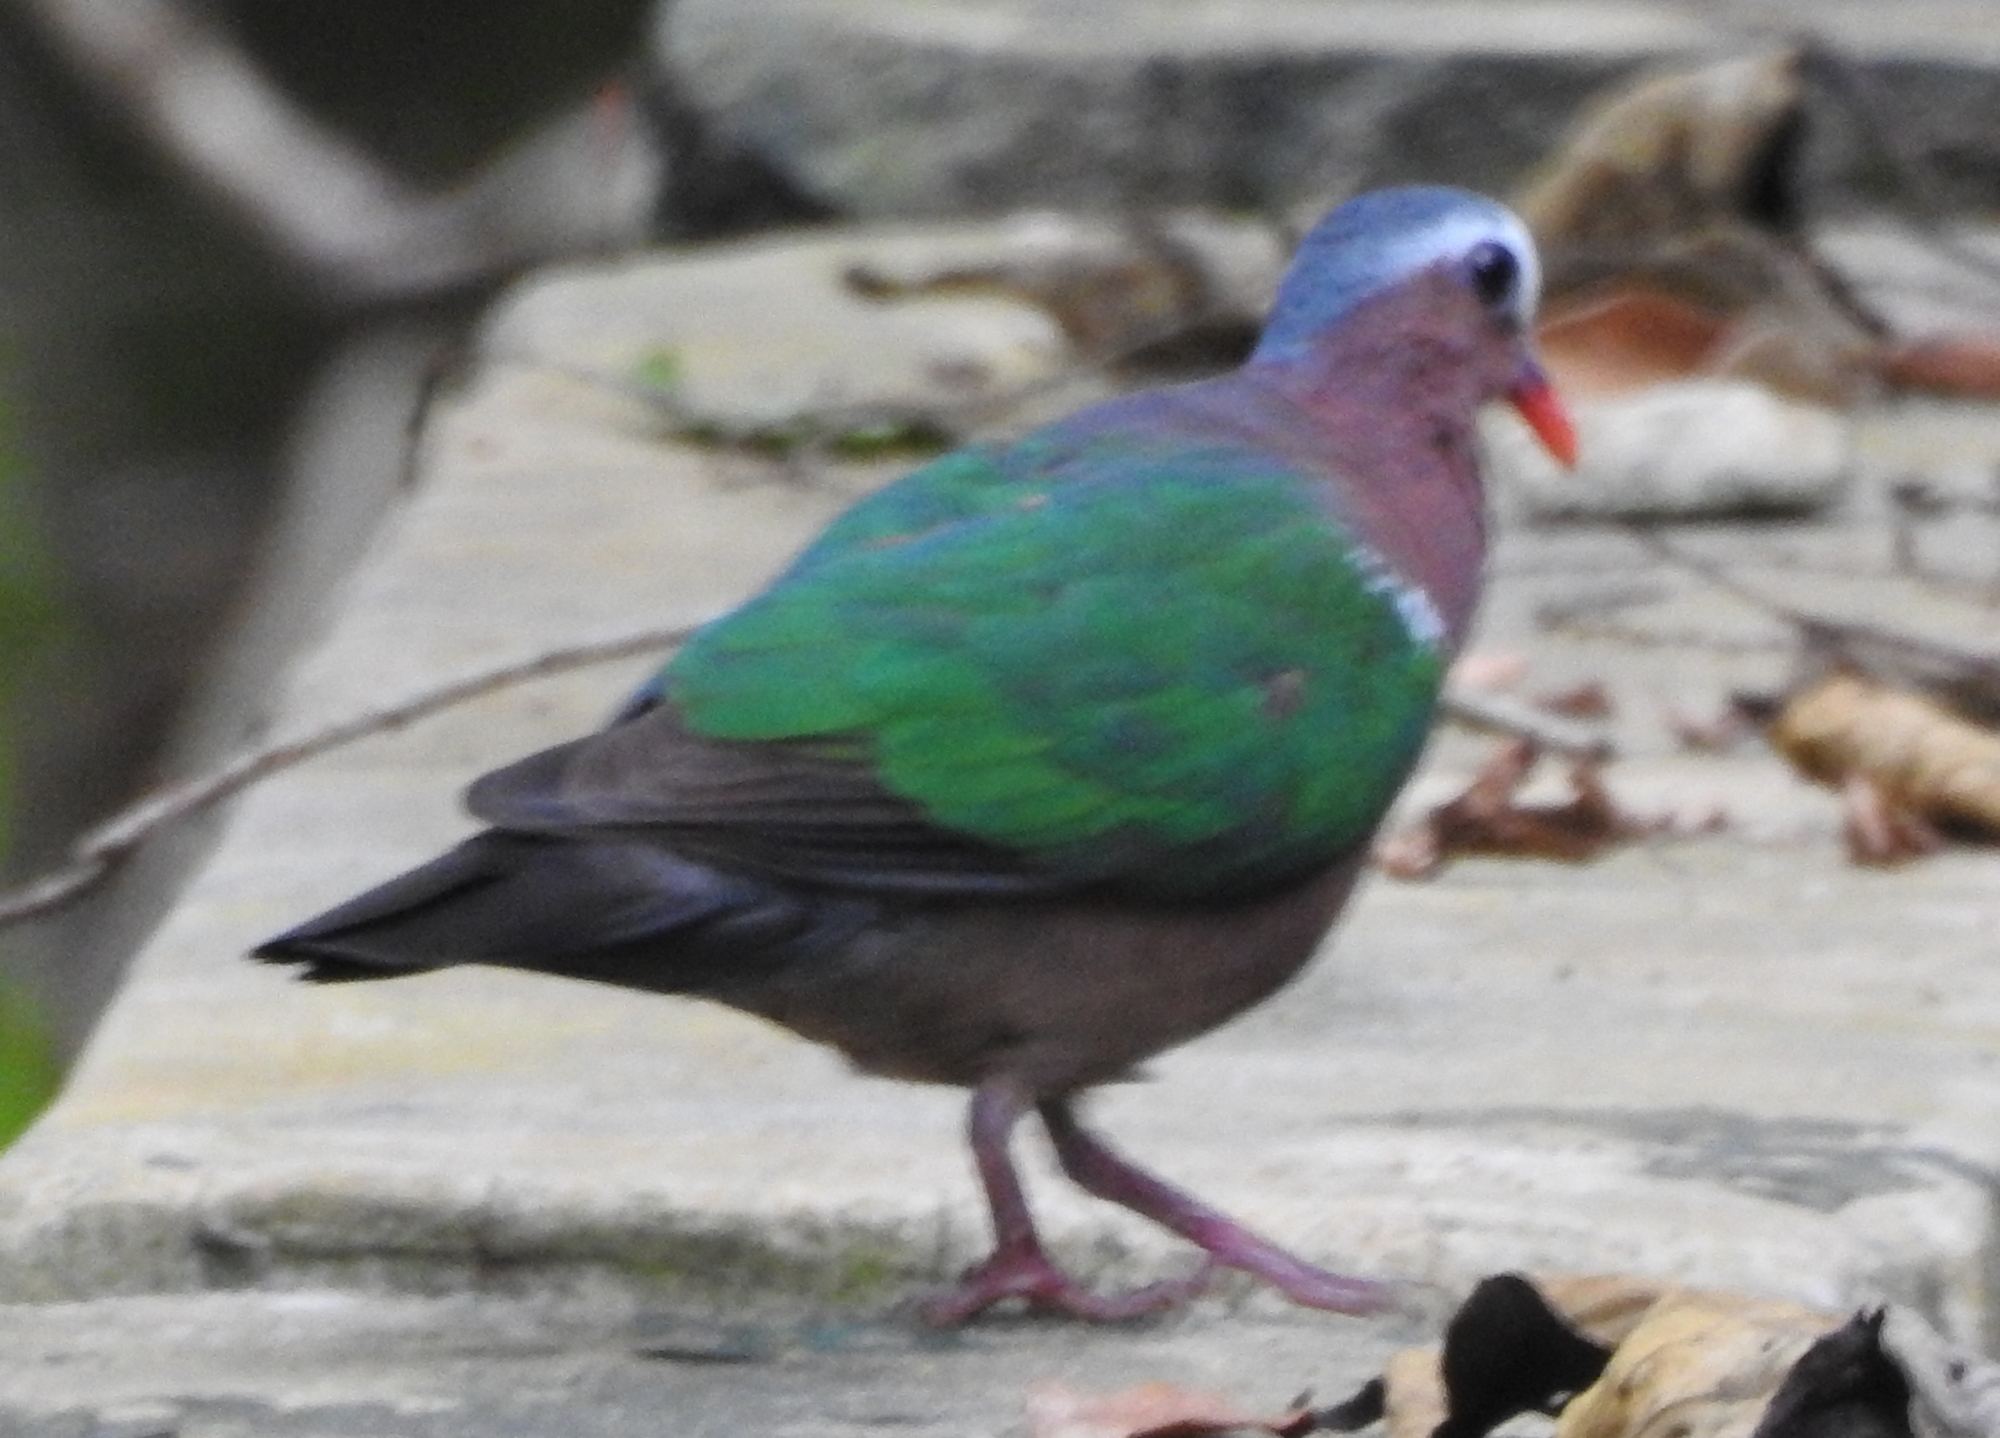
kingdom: Animalia
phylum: Chordata
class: Aves
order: Columbiformes
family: Columbidae
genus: Chalcophaps
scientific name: Chalcophaps indica
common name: Common emerald dove
